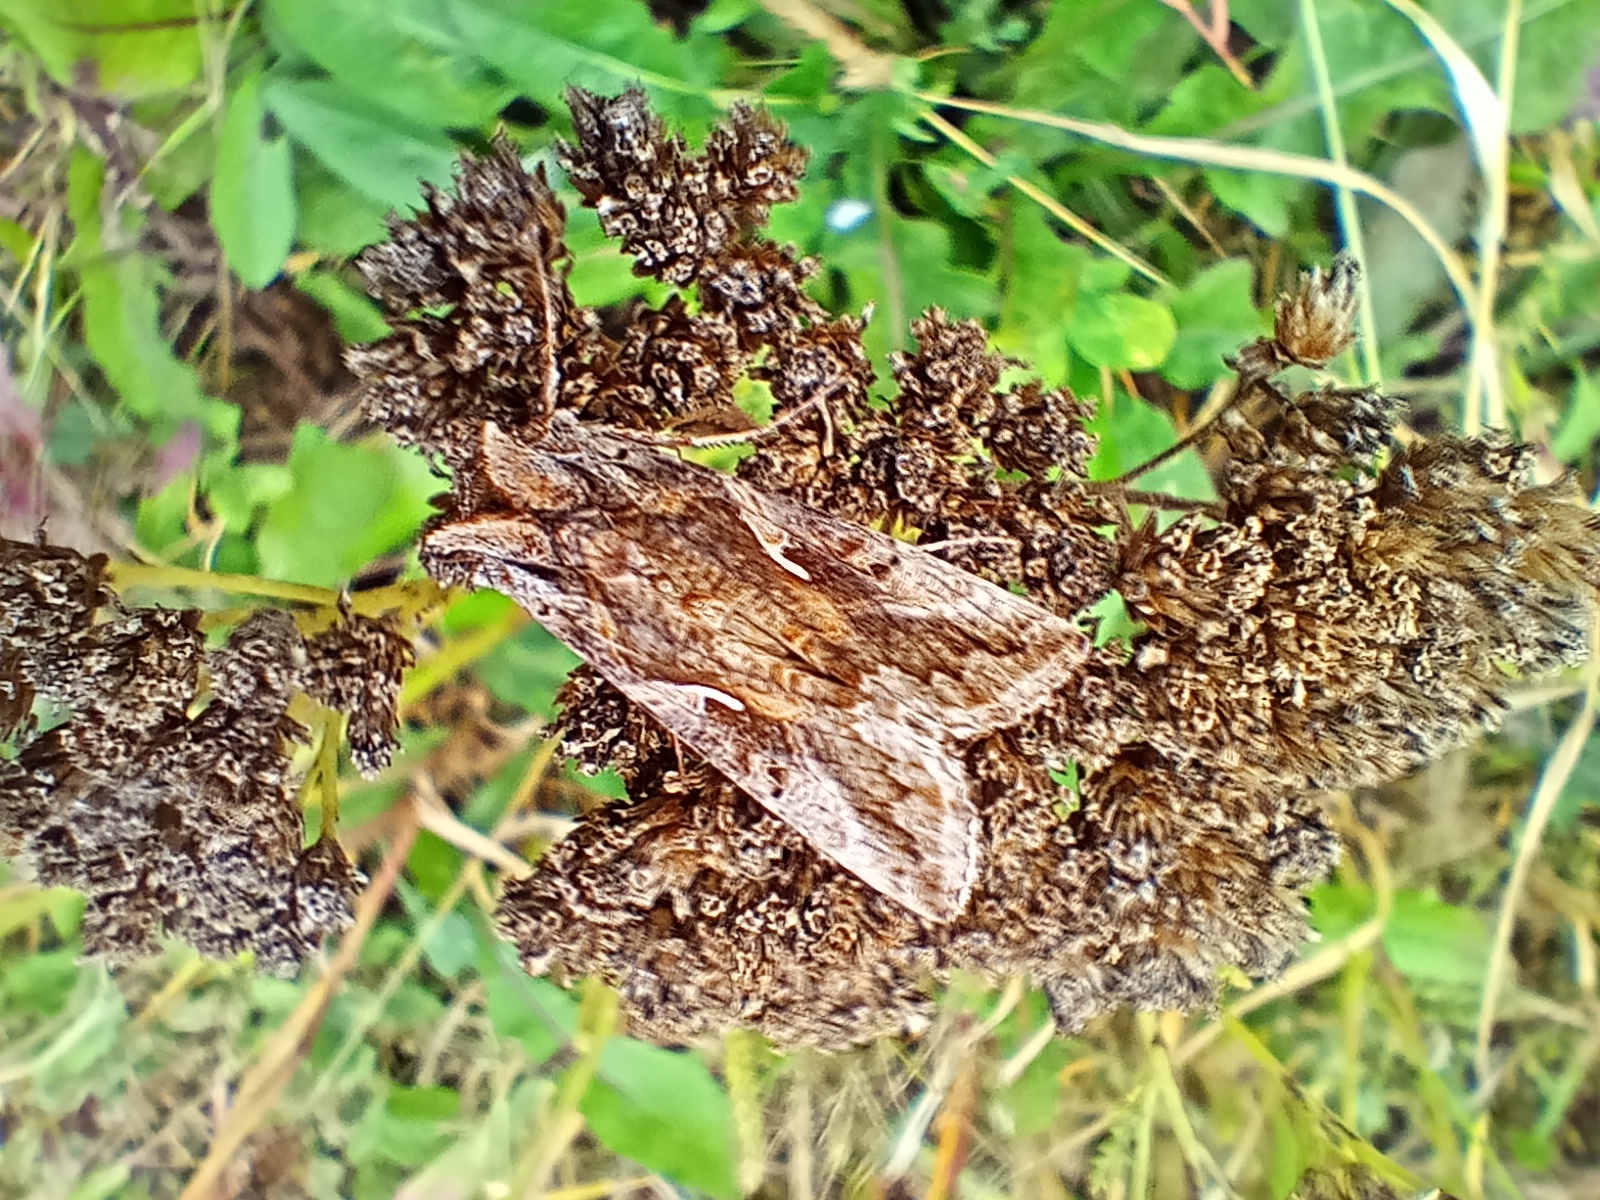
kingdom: Animalia
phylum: Arthropoda
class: Insecta
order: Lepidoptera
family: Noctuidae
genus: Autographa
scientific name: Autographa gamma
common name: Silver y
